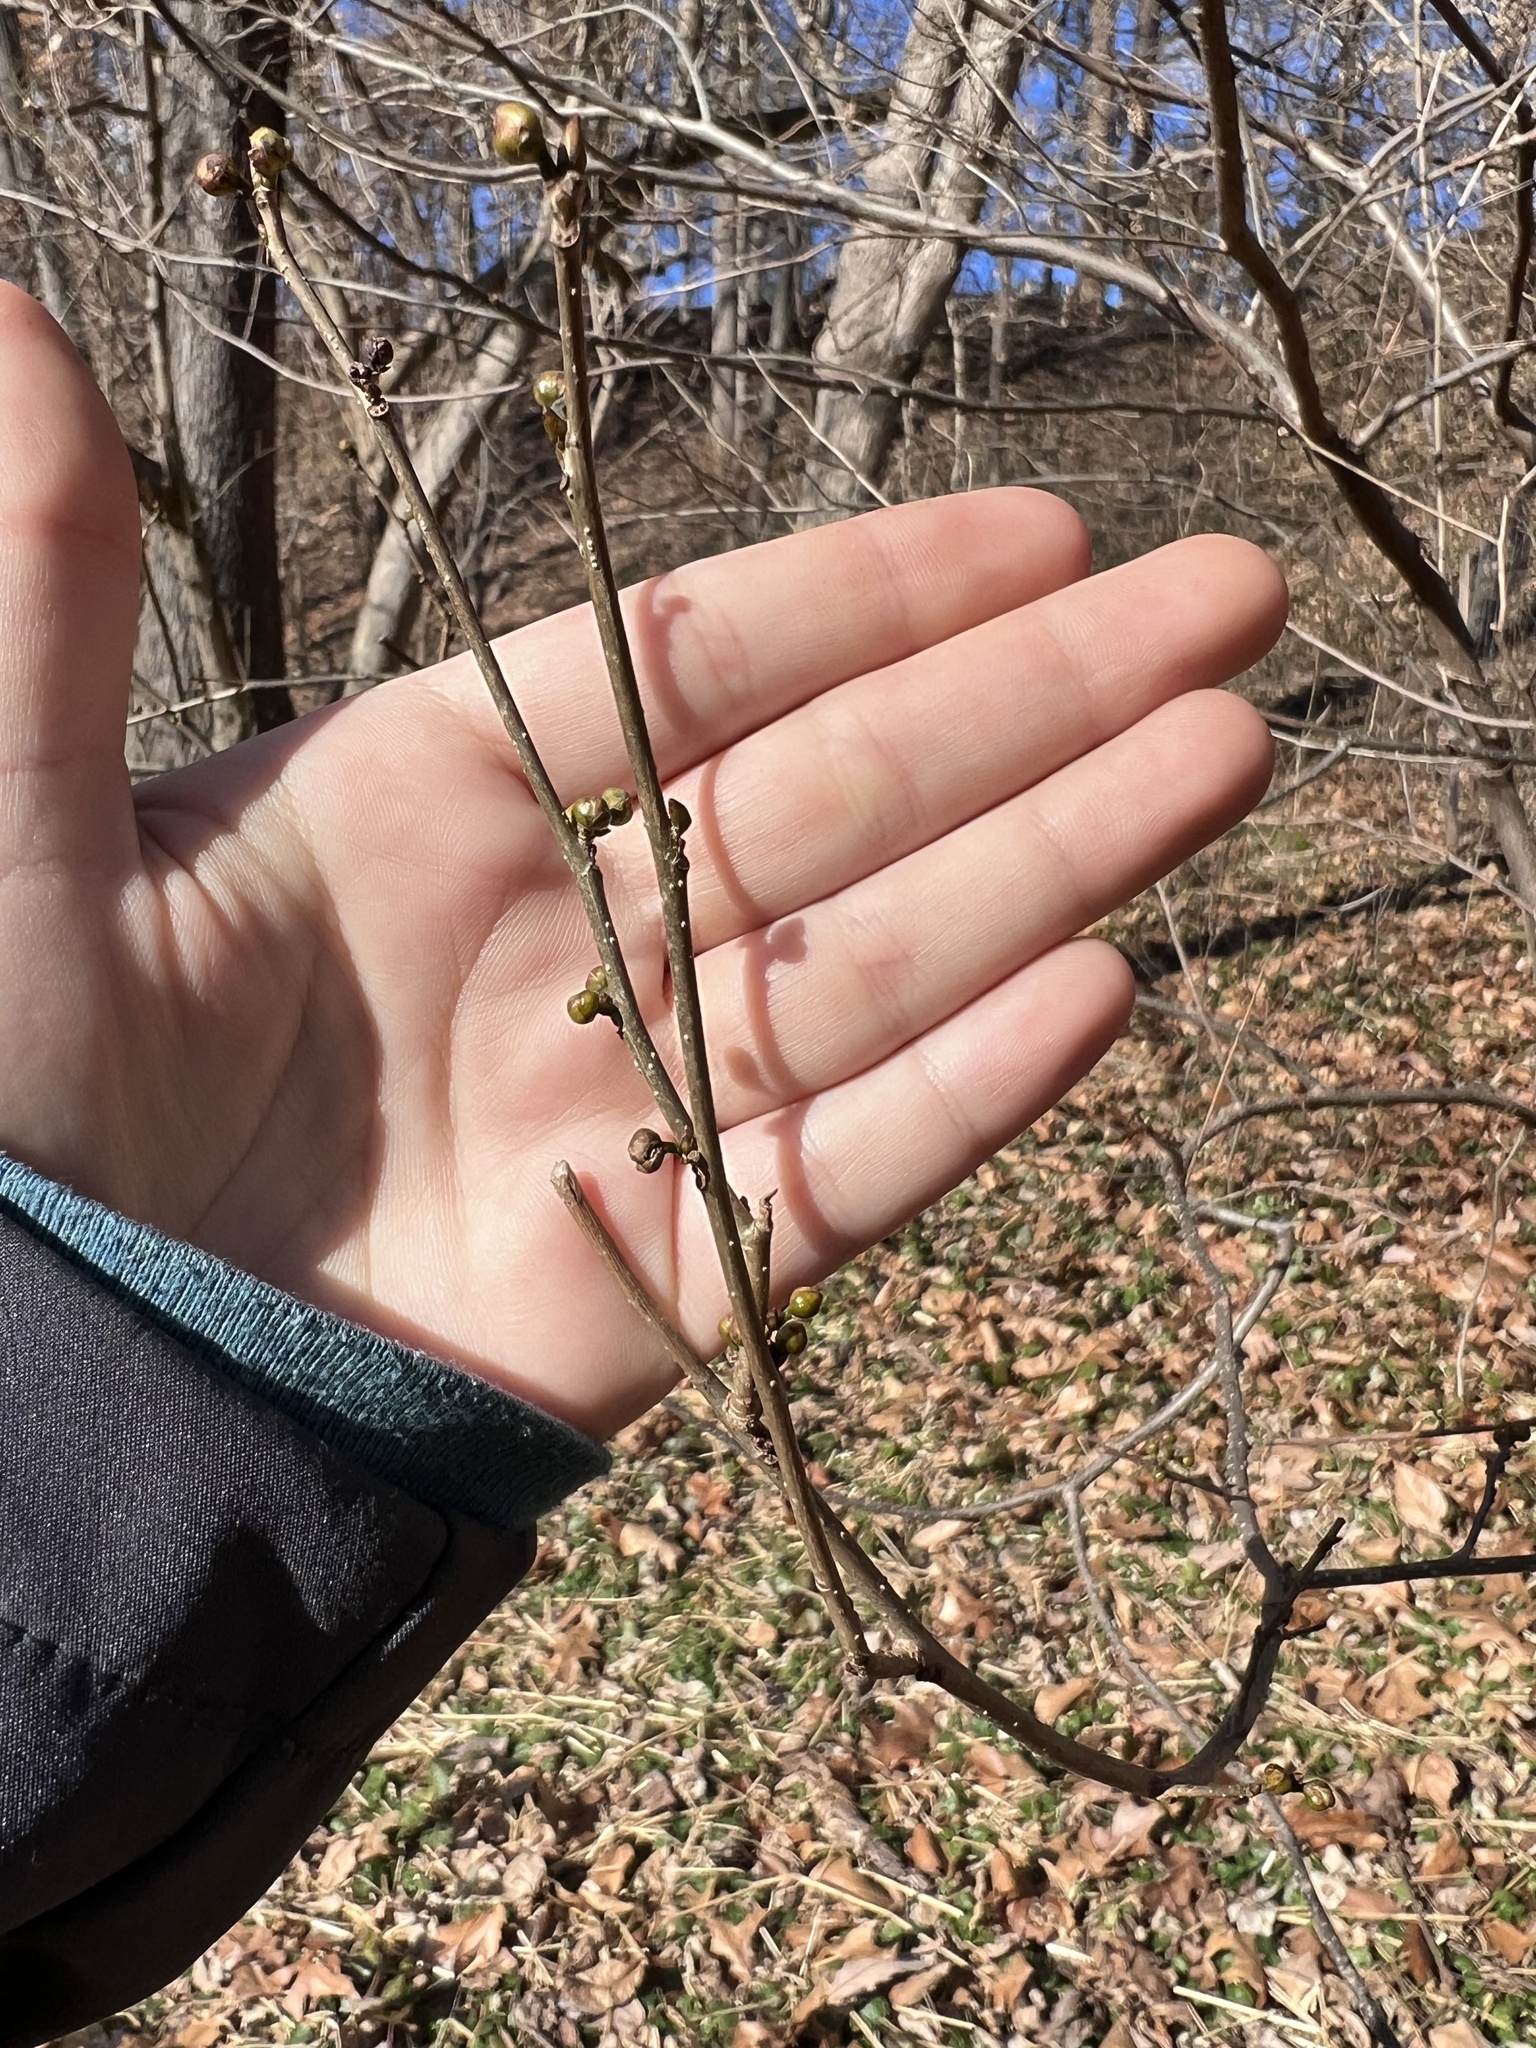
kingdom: Plantae
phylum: Tracheophyta
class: Magnoliopsida
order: Laurales
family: Lauraceae
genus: Lindera
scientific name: Lindera benzoin
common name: Spicebush
